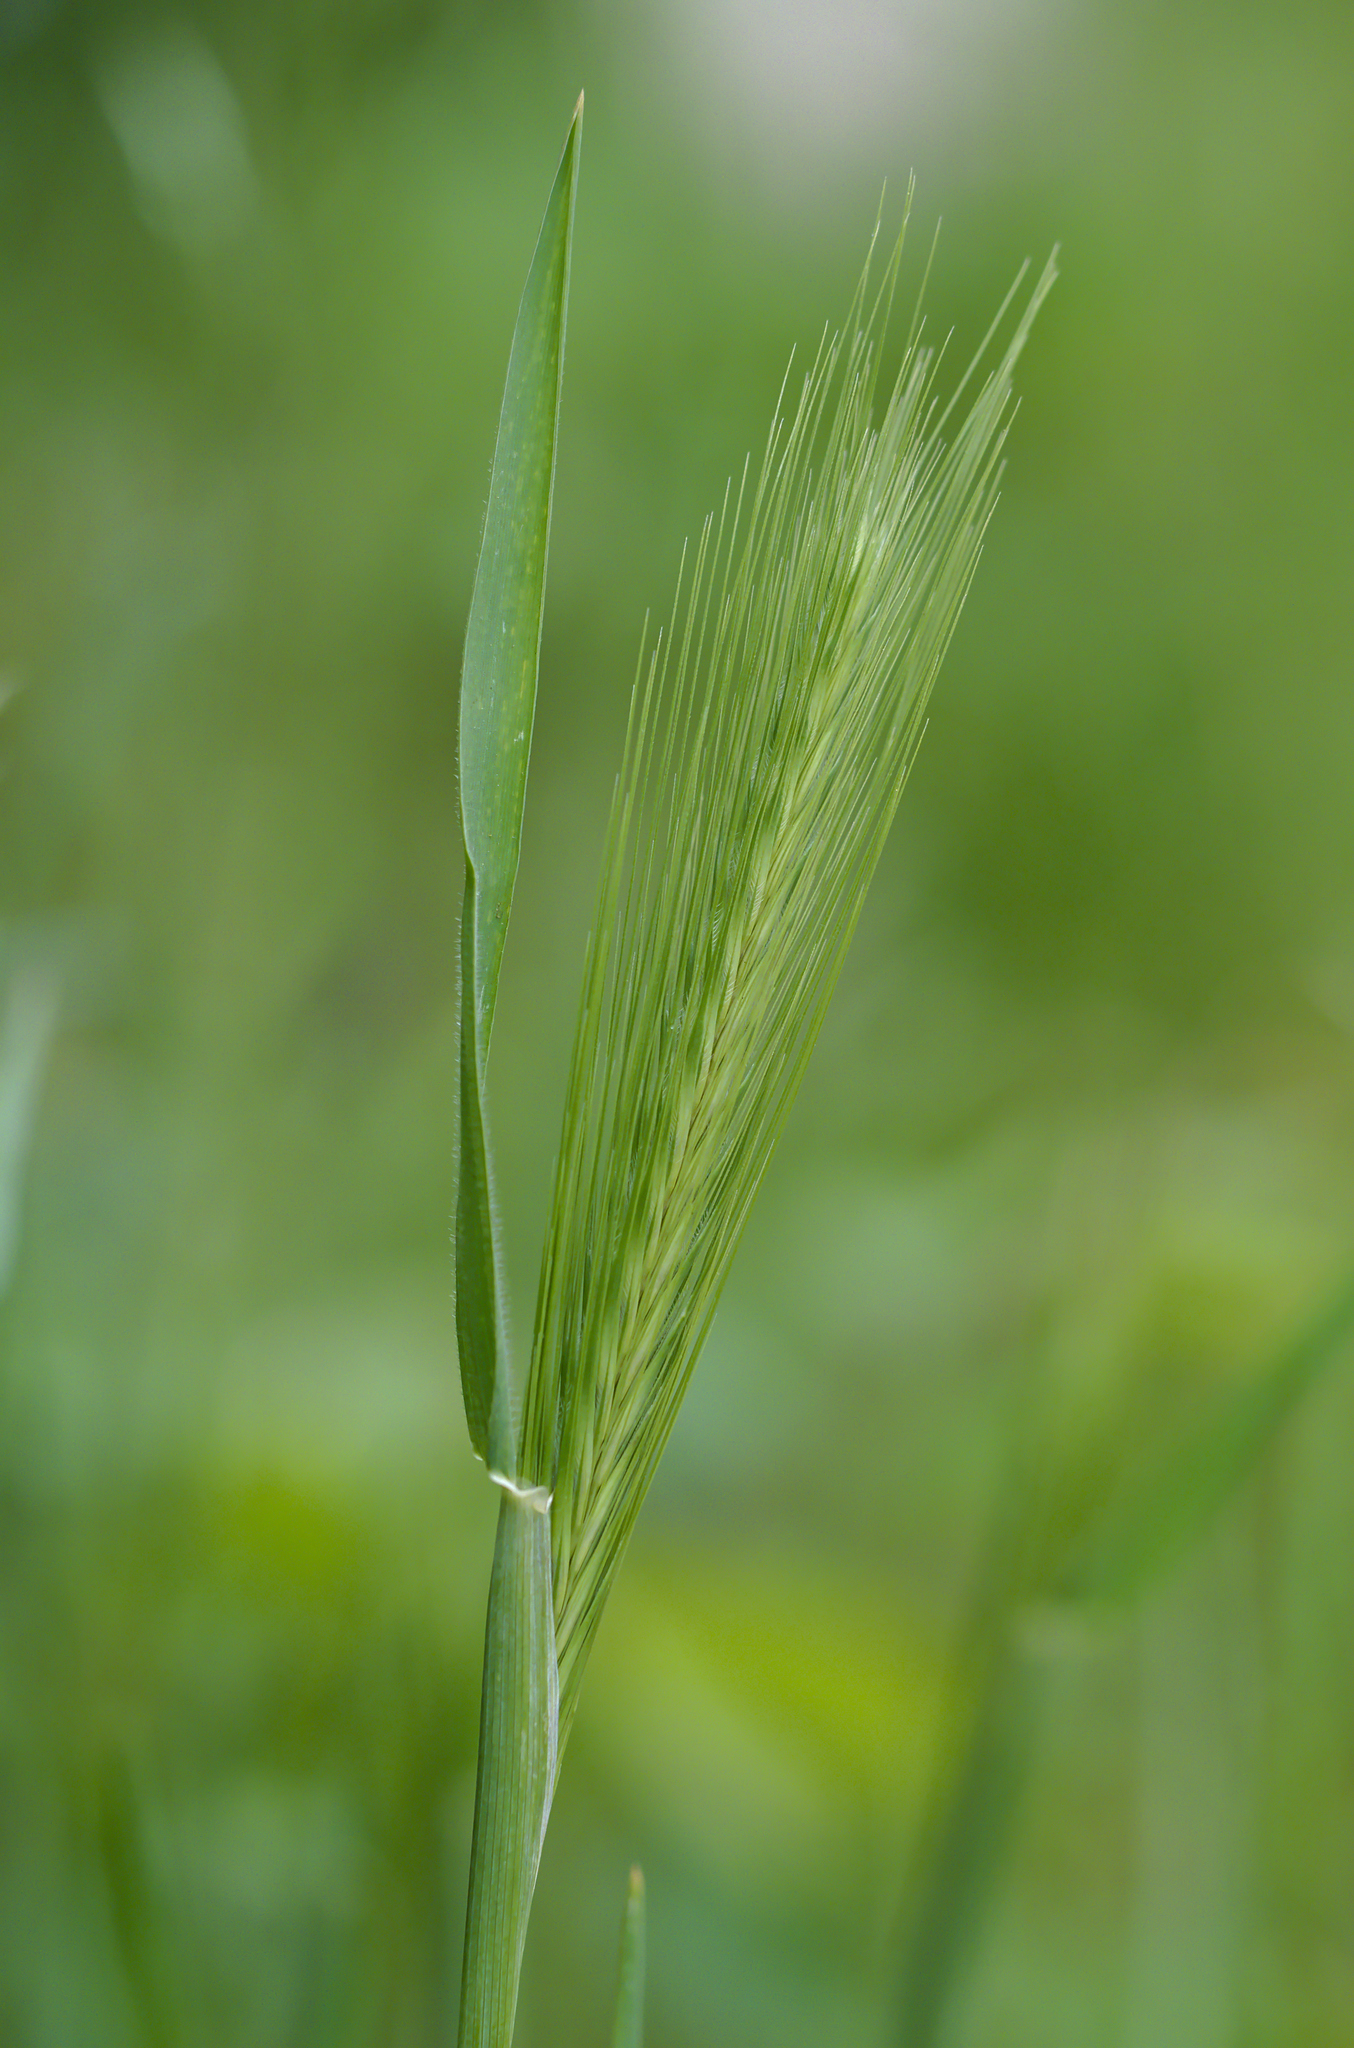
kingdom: Plantae
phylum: Tracheophyta
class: Liliopsida
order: Poales
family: Poaceae
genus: Hordeum
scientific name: Hordeum murinum
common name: Wall barley
